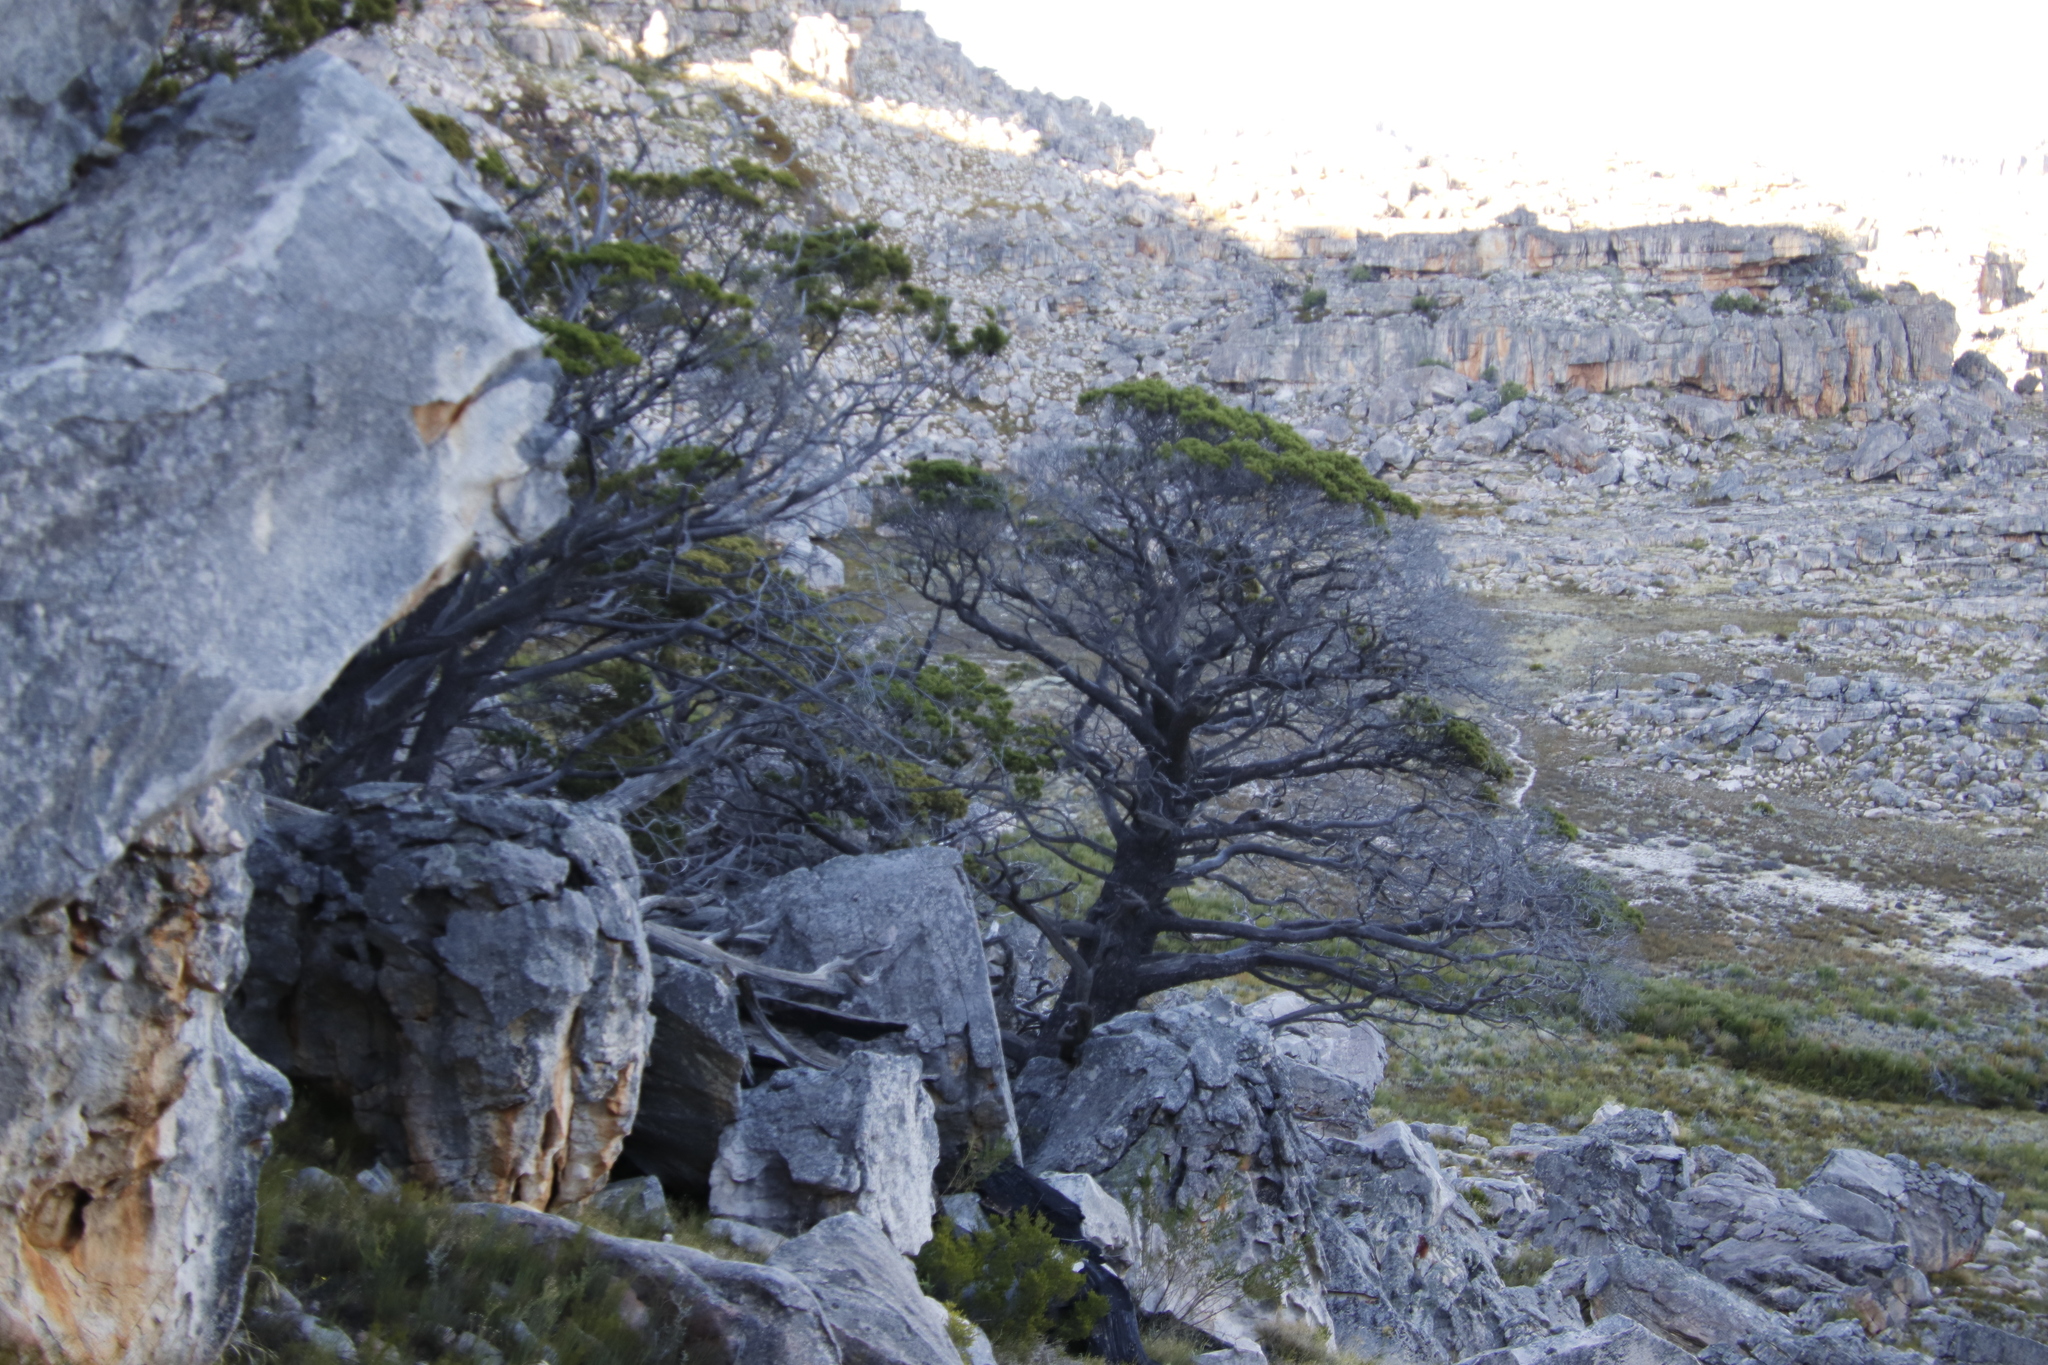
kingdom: Plantae
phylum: Tracheophyta
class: Pinopsida
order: Pinales
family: Cupressaceae
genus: Widdringtonia
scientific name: Widdringtonia nodiflora
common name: Cape cypress
